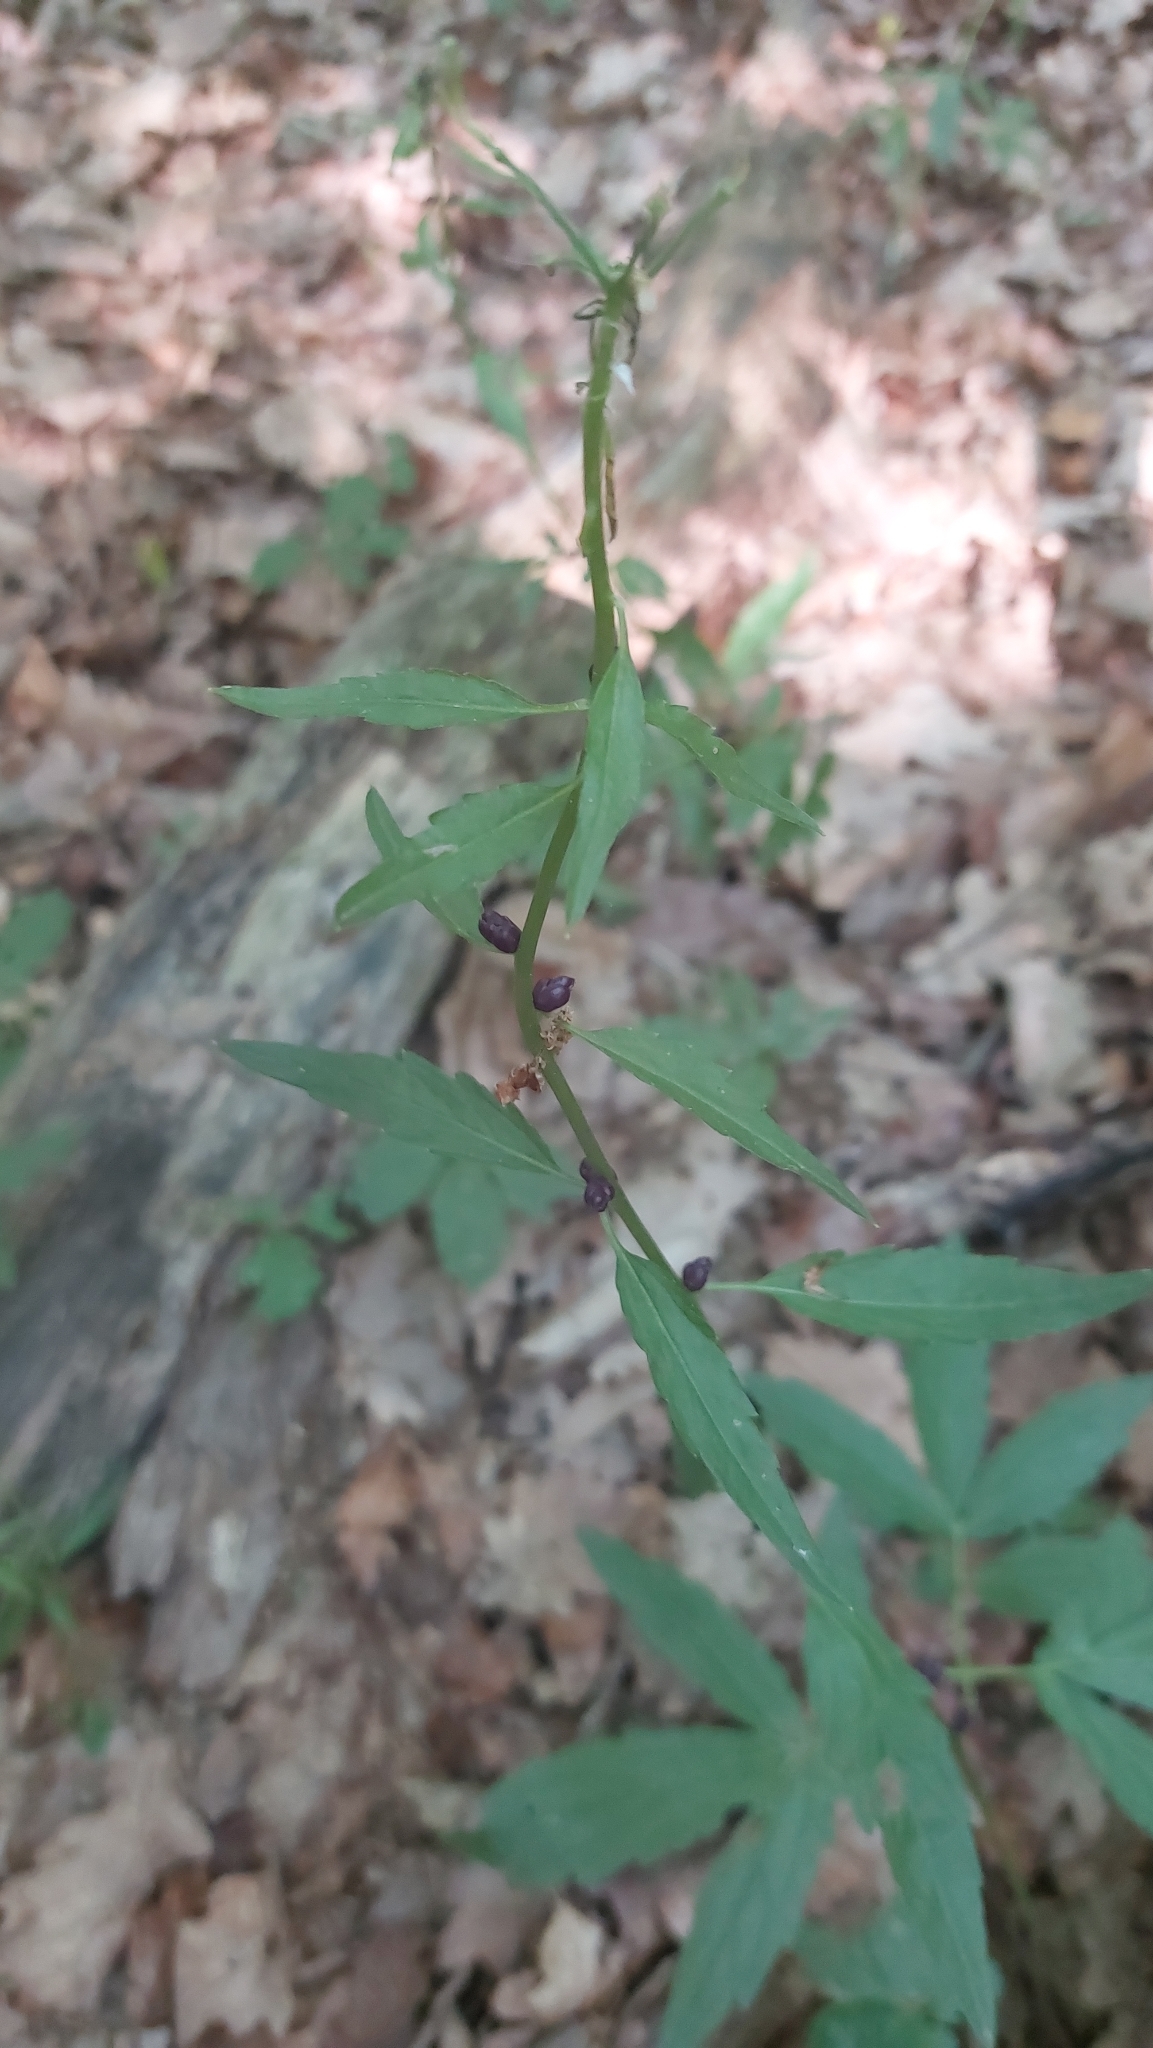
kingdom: Plantae
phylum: Tracheophyta
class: Magnoliopsida
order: Brassicales
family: Brassicaceae
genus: Cardamine
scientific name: Cardamine bulbifera
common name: Coralroot bittercress
